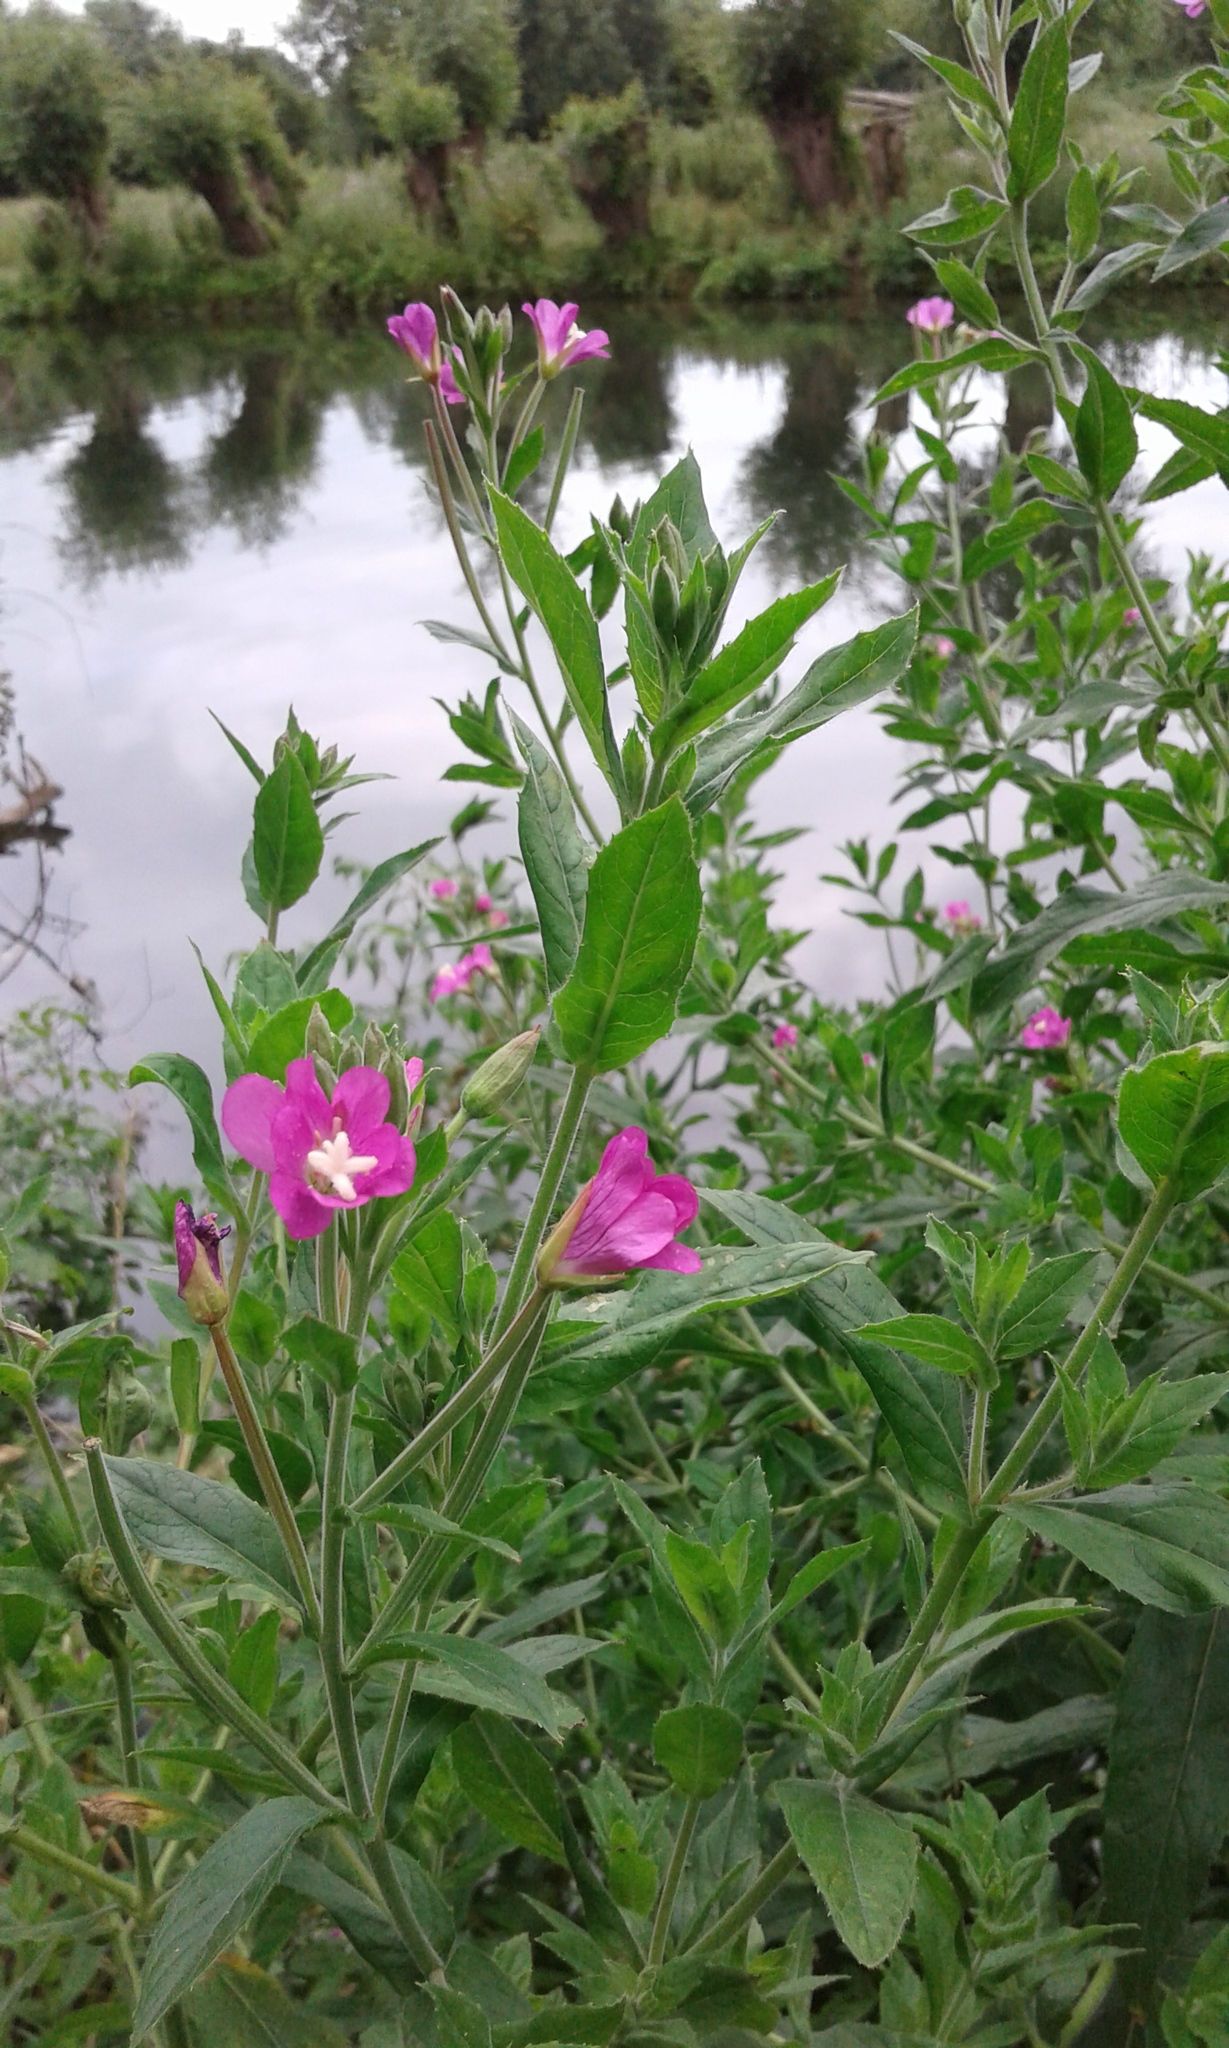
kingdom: Plantae
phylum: Tracheophyta
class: Magnoliopsida
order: Myrtales
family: Onagraceae
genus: Epilobium
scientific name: Epilobium hirsutum
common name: Great willowherb
